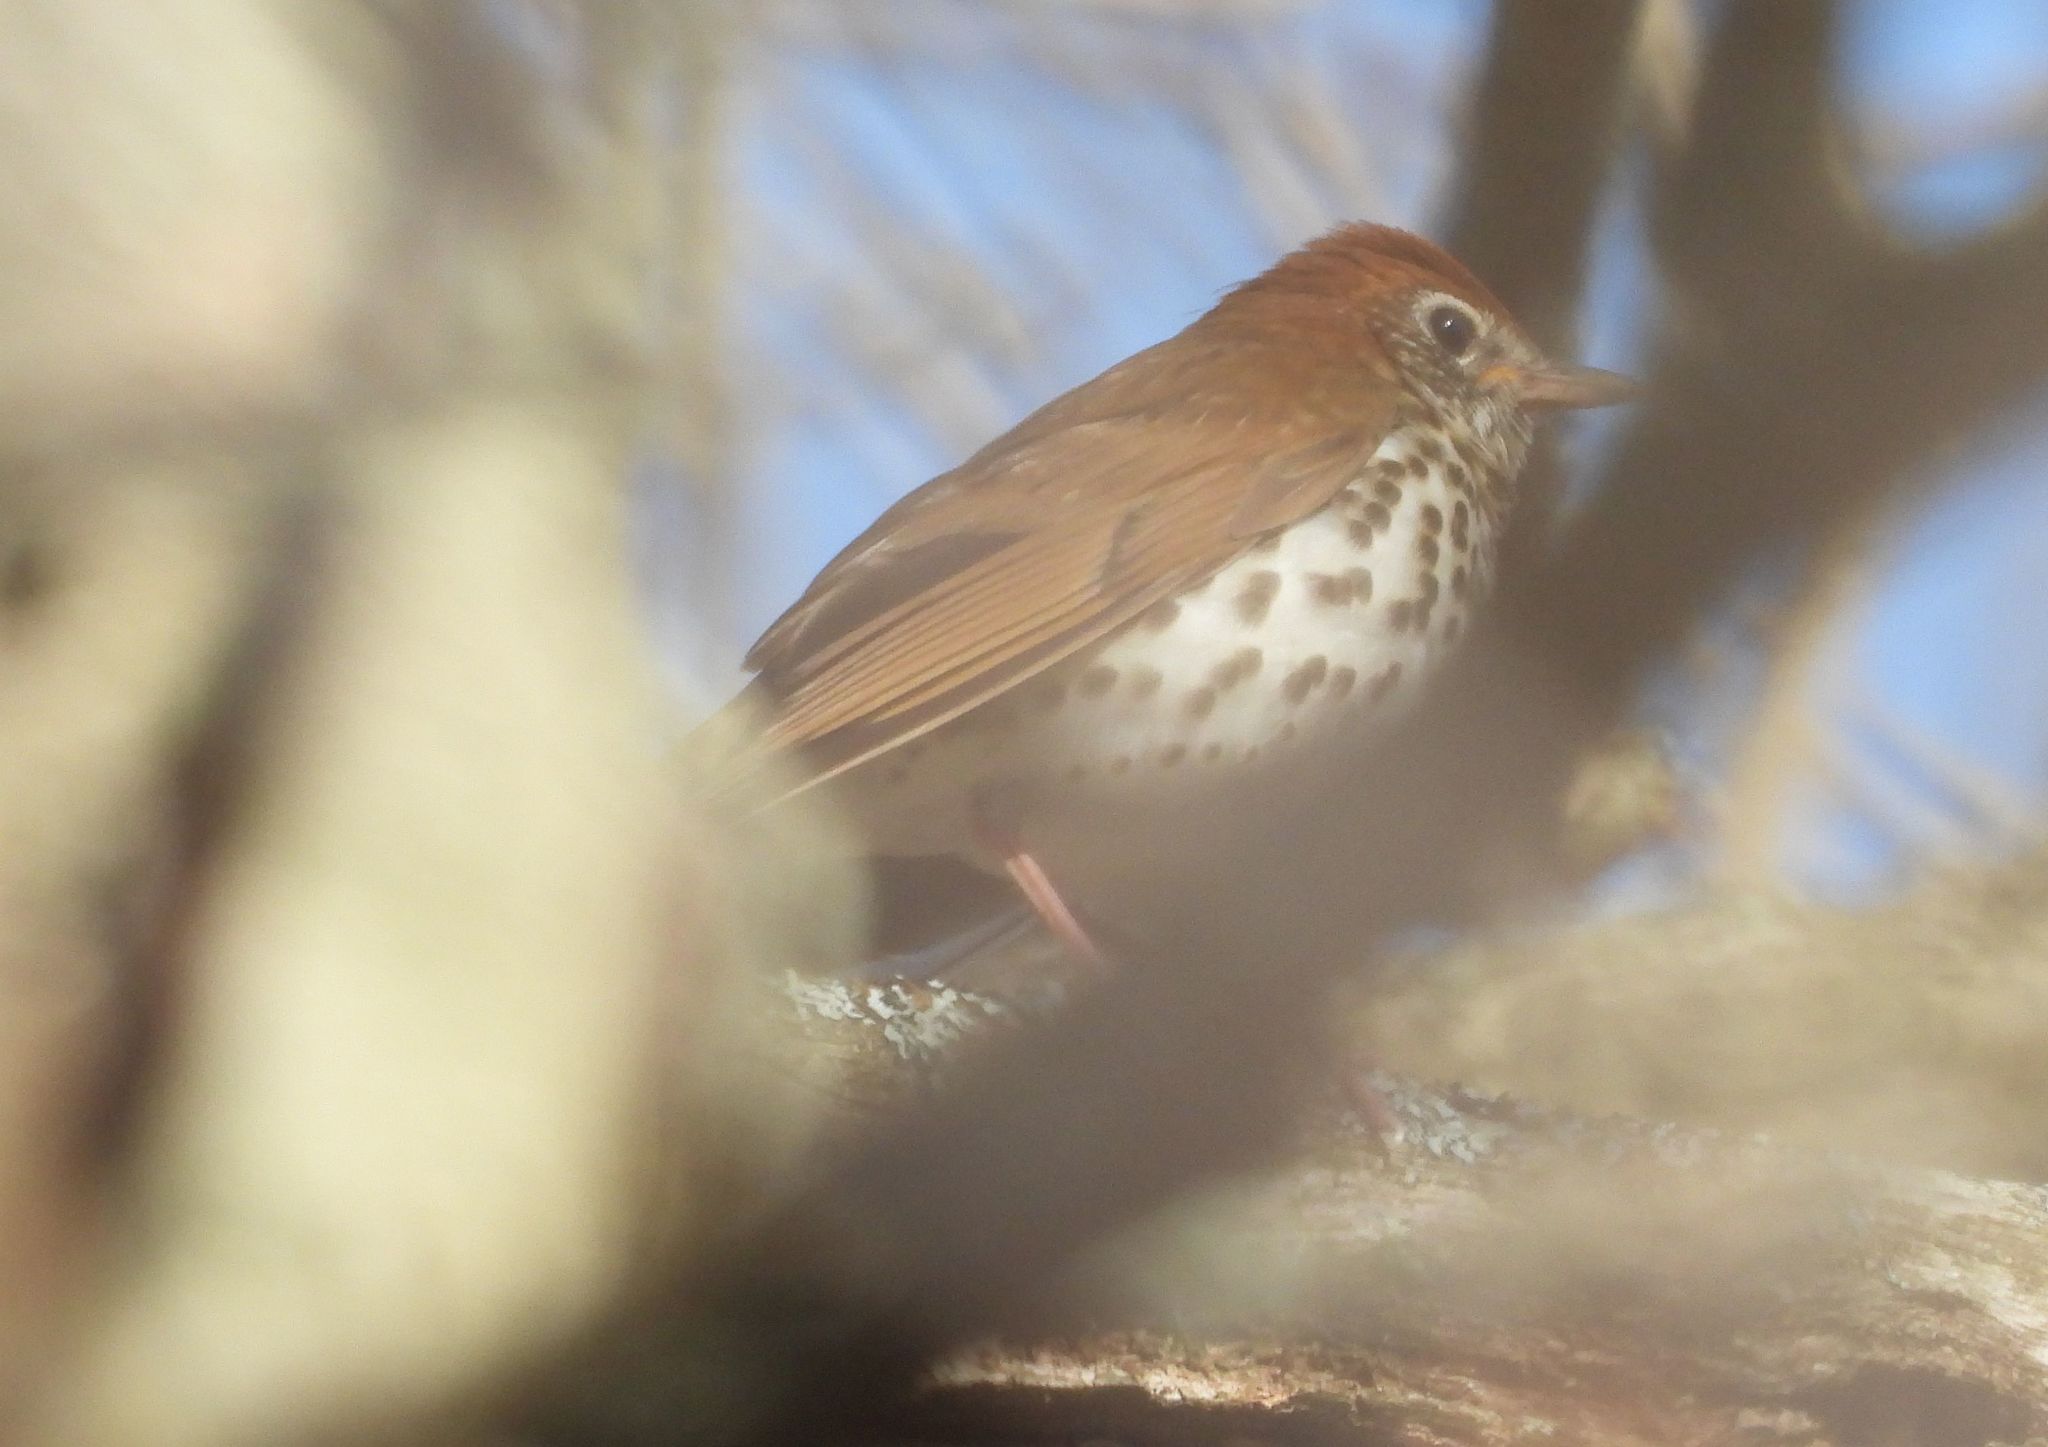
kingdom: Animalia
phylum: Chordata
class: Aves
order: Passeriformes
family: Turdidae
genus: Hylocichla
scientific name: Hylocichla mustelina
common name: Wood thrush
